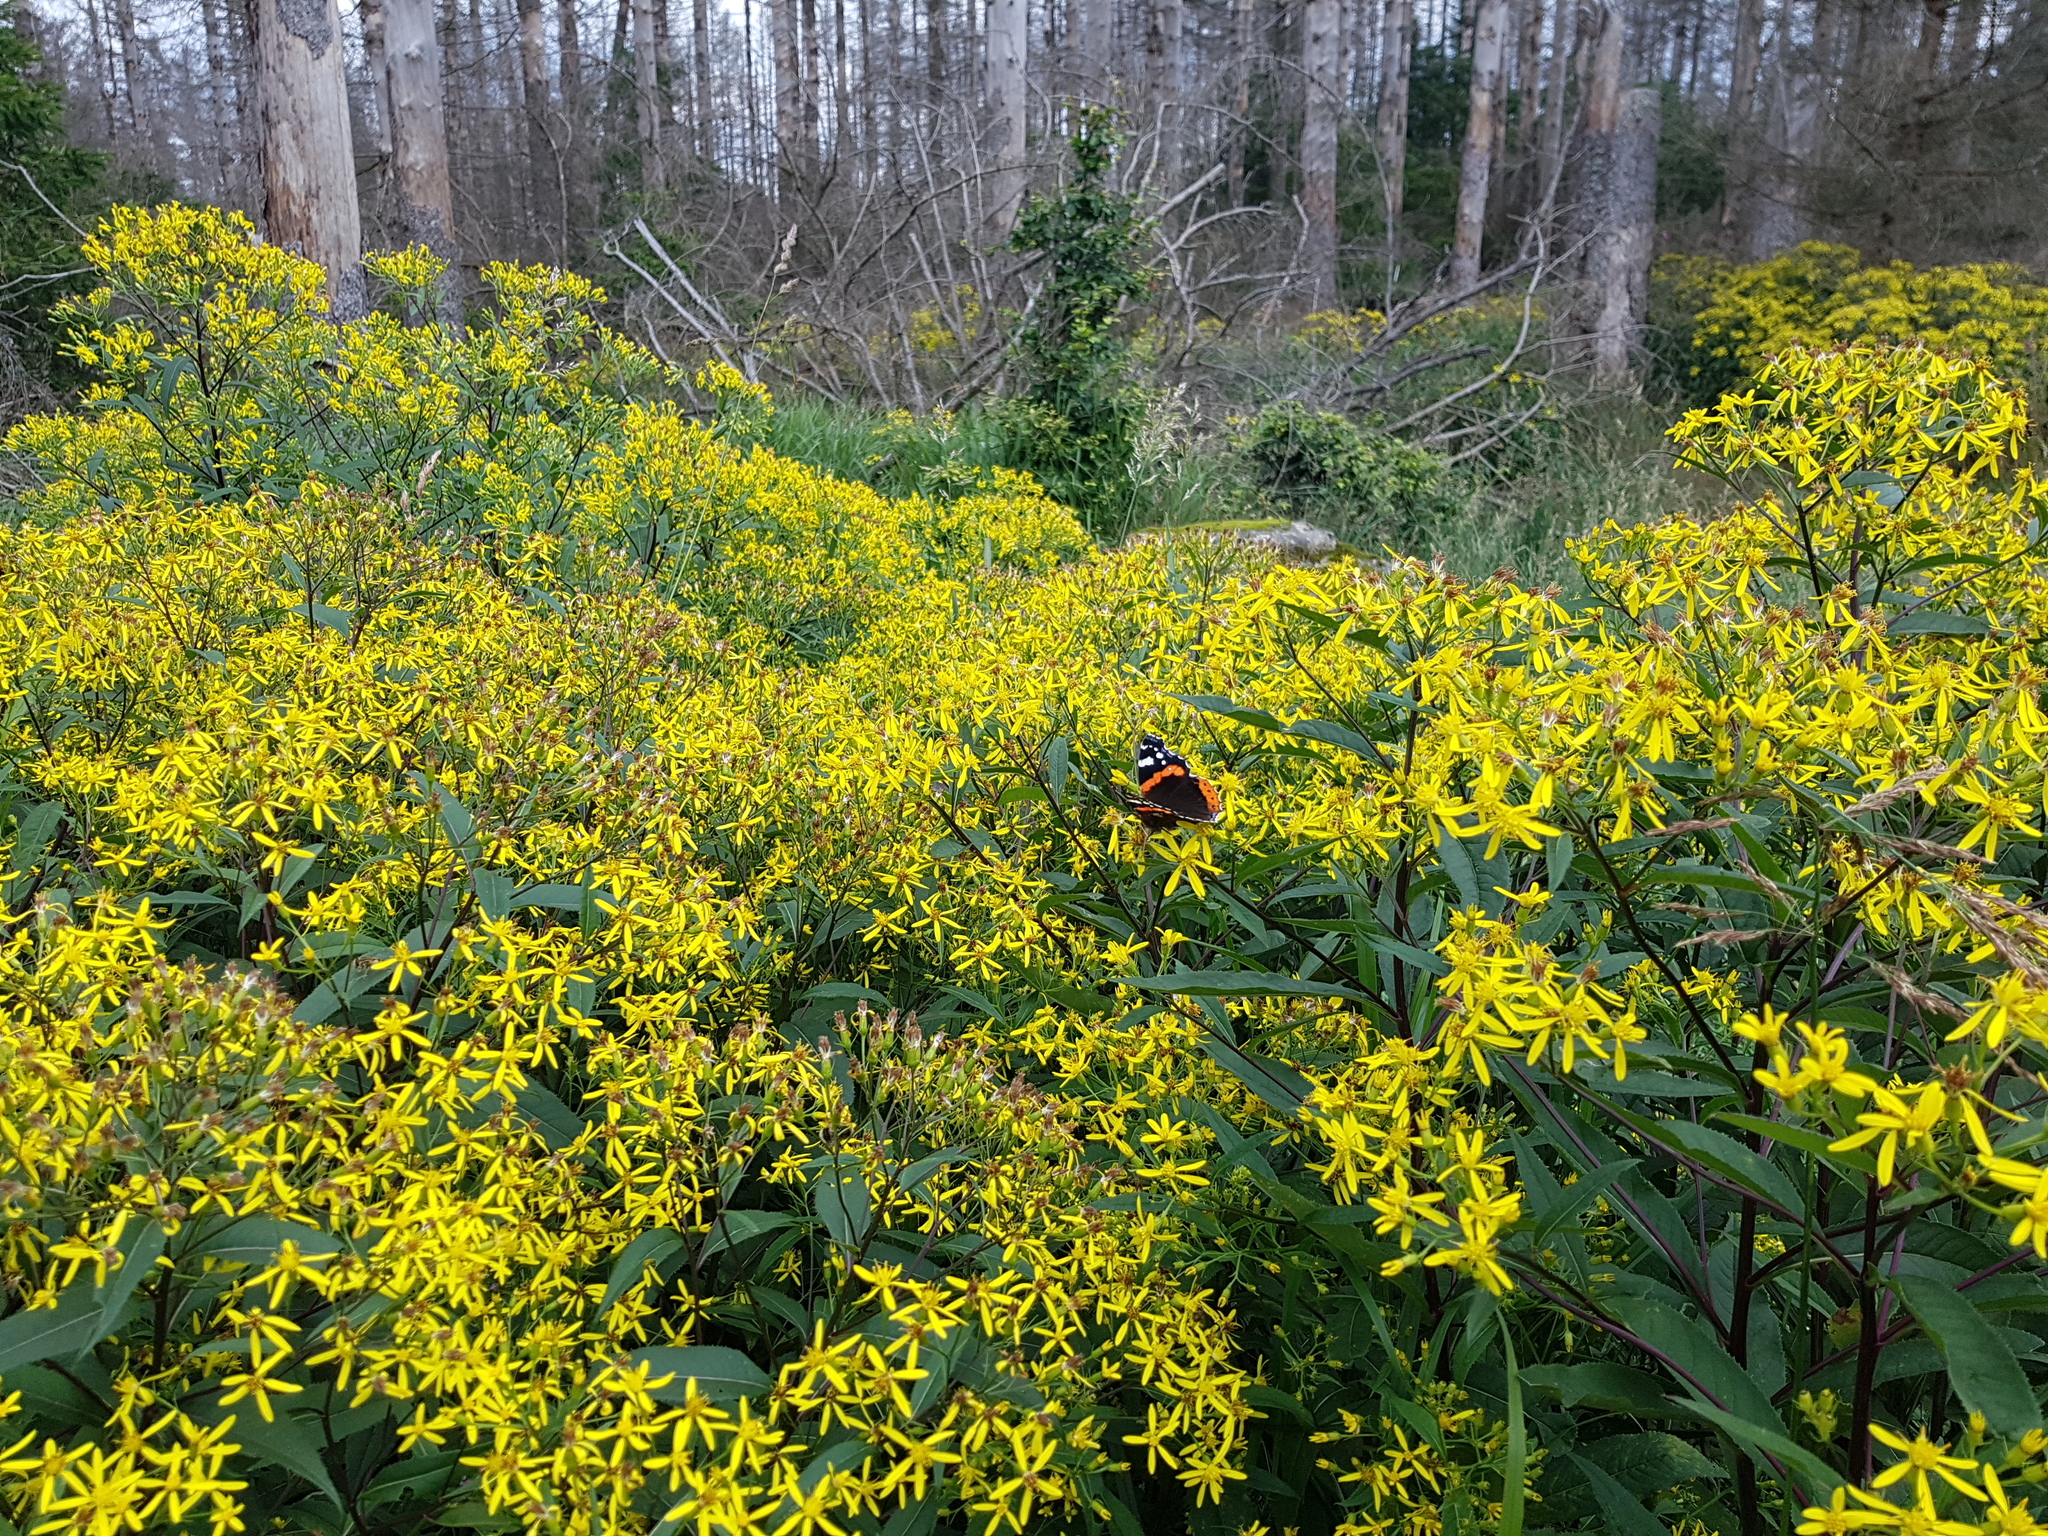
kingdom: Plantae
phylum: Tracheophyta
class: Magnoliopsida
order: Asterales
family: Asteraceae
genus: Senecio
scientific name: Senecio ovatus
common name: Wood ragwort
